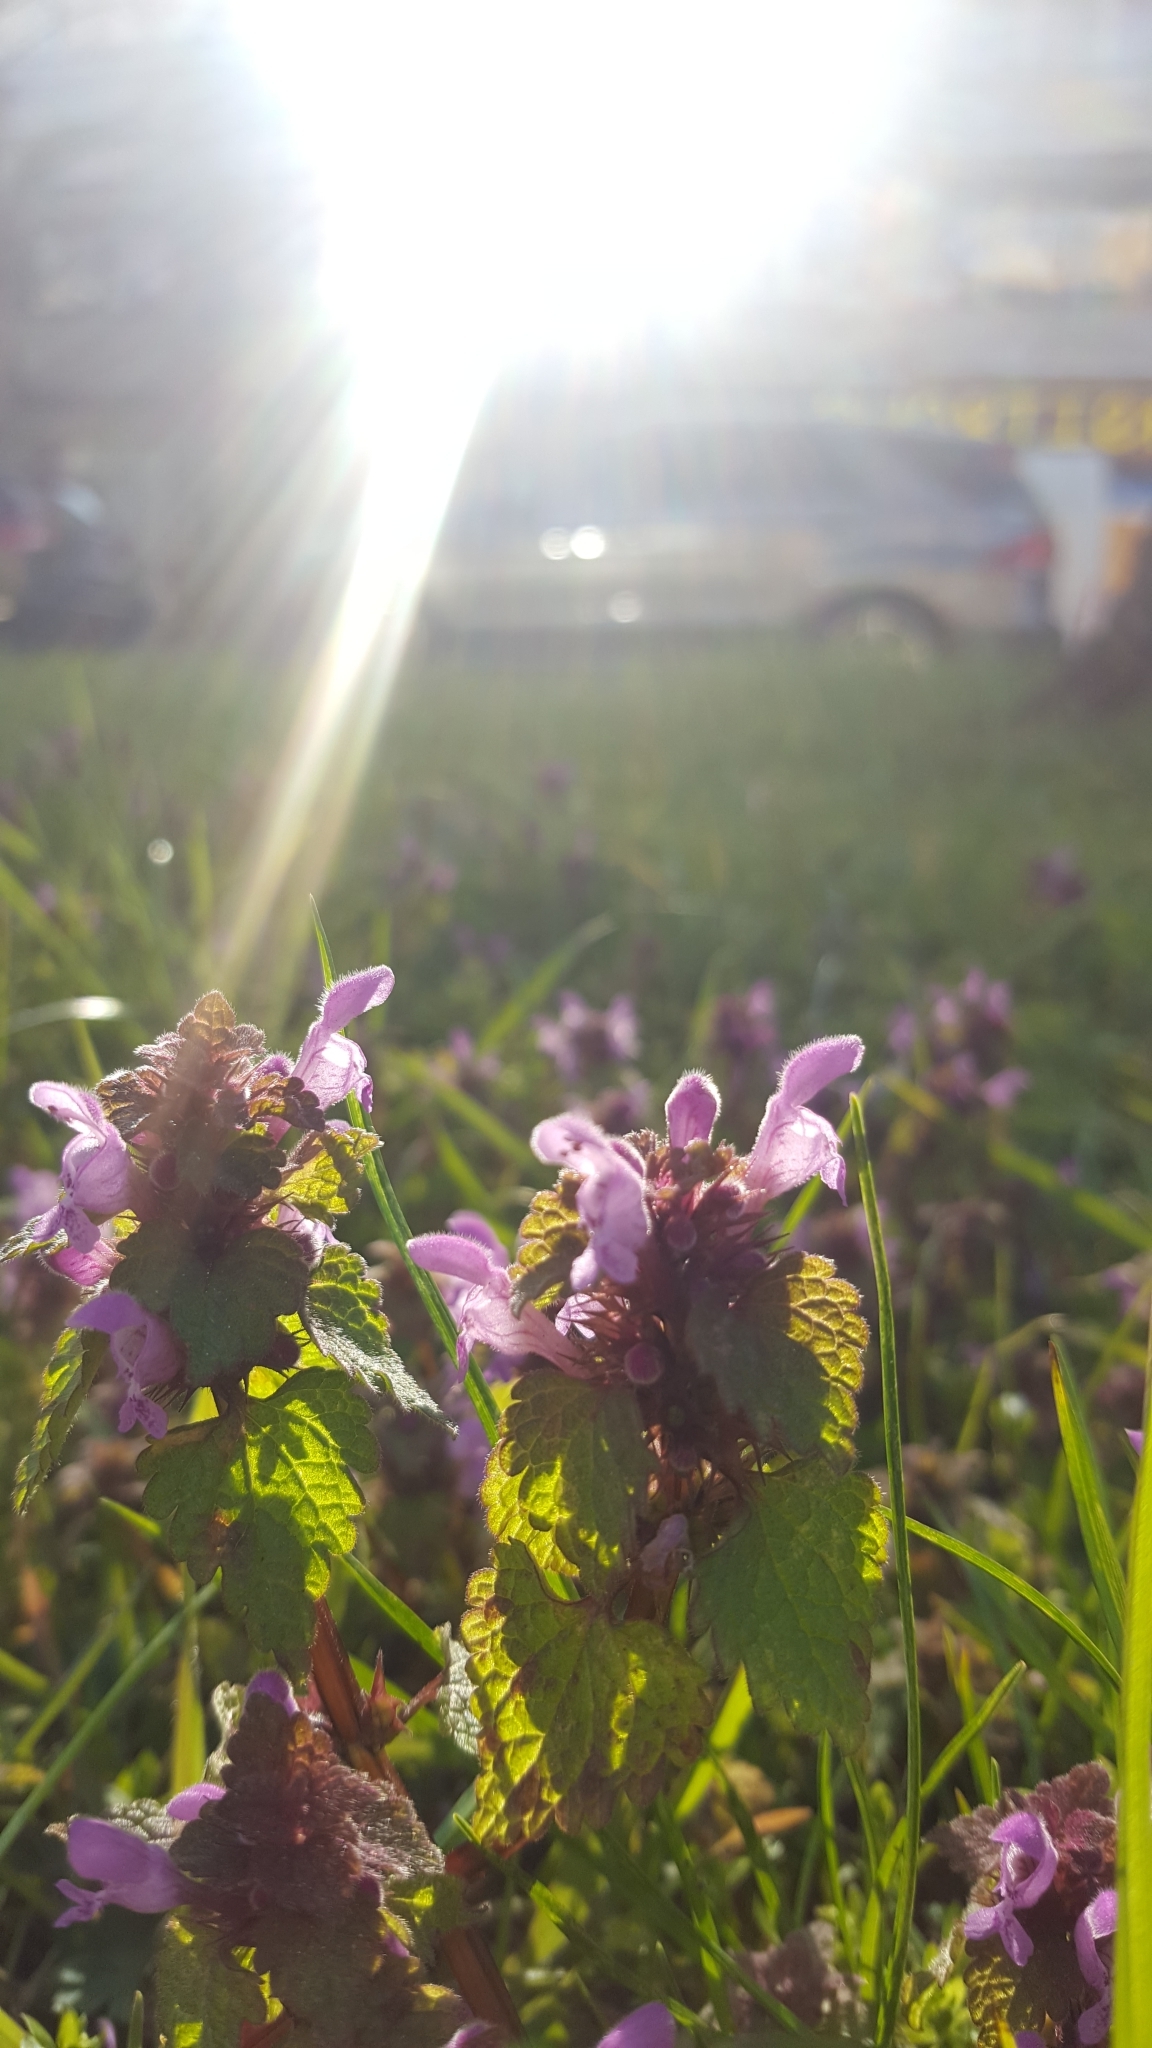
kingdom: Plantae
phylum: Tracheophyta
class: Magnoliopsida
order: Lamiales
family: Lamiaceae
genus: Lamium
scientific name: Lamium purpureum
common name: Red dead-nettle
